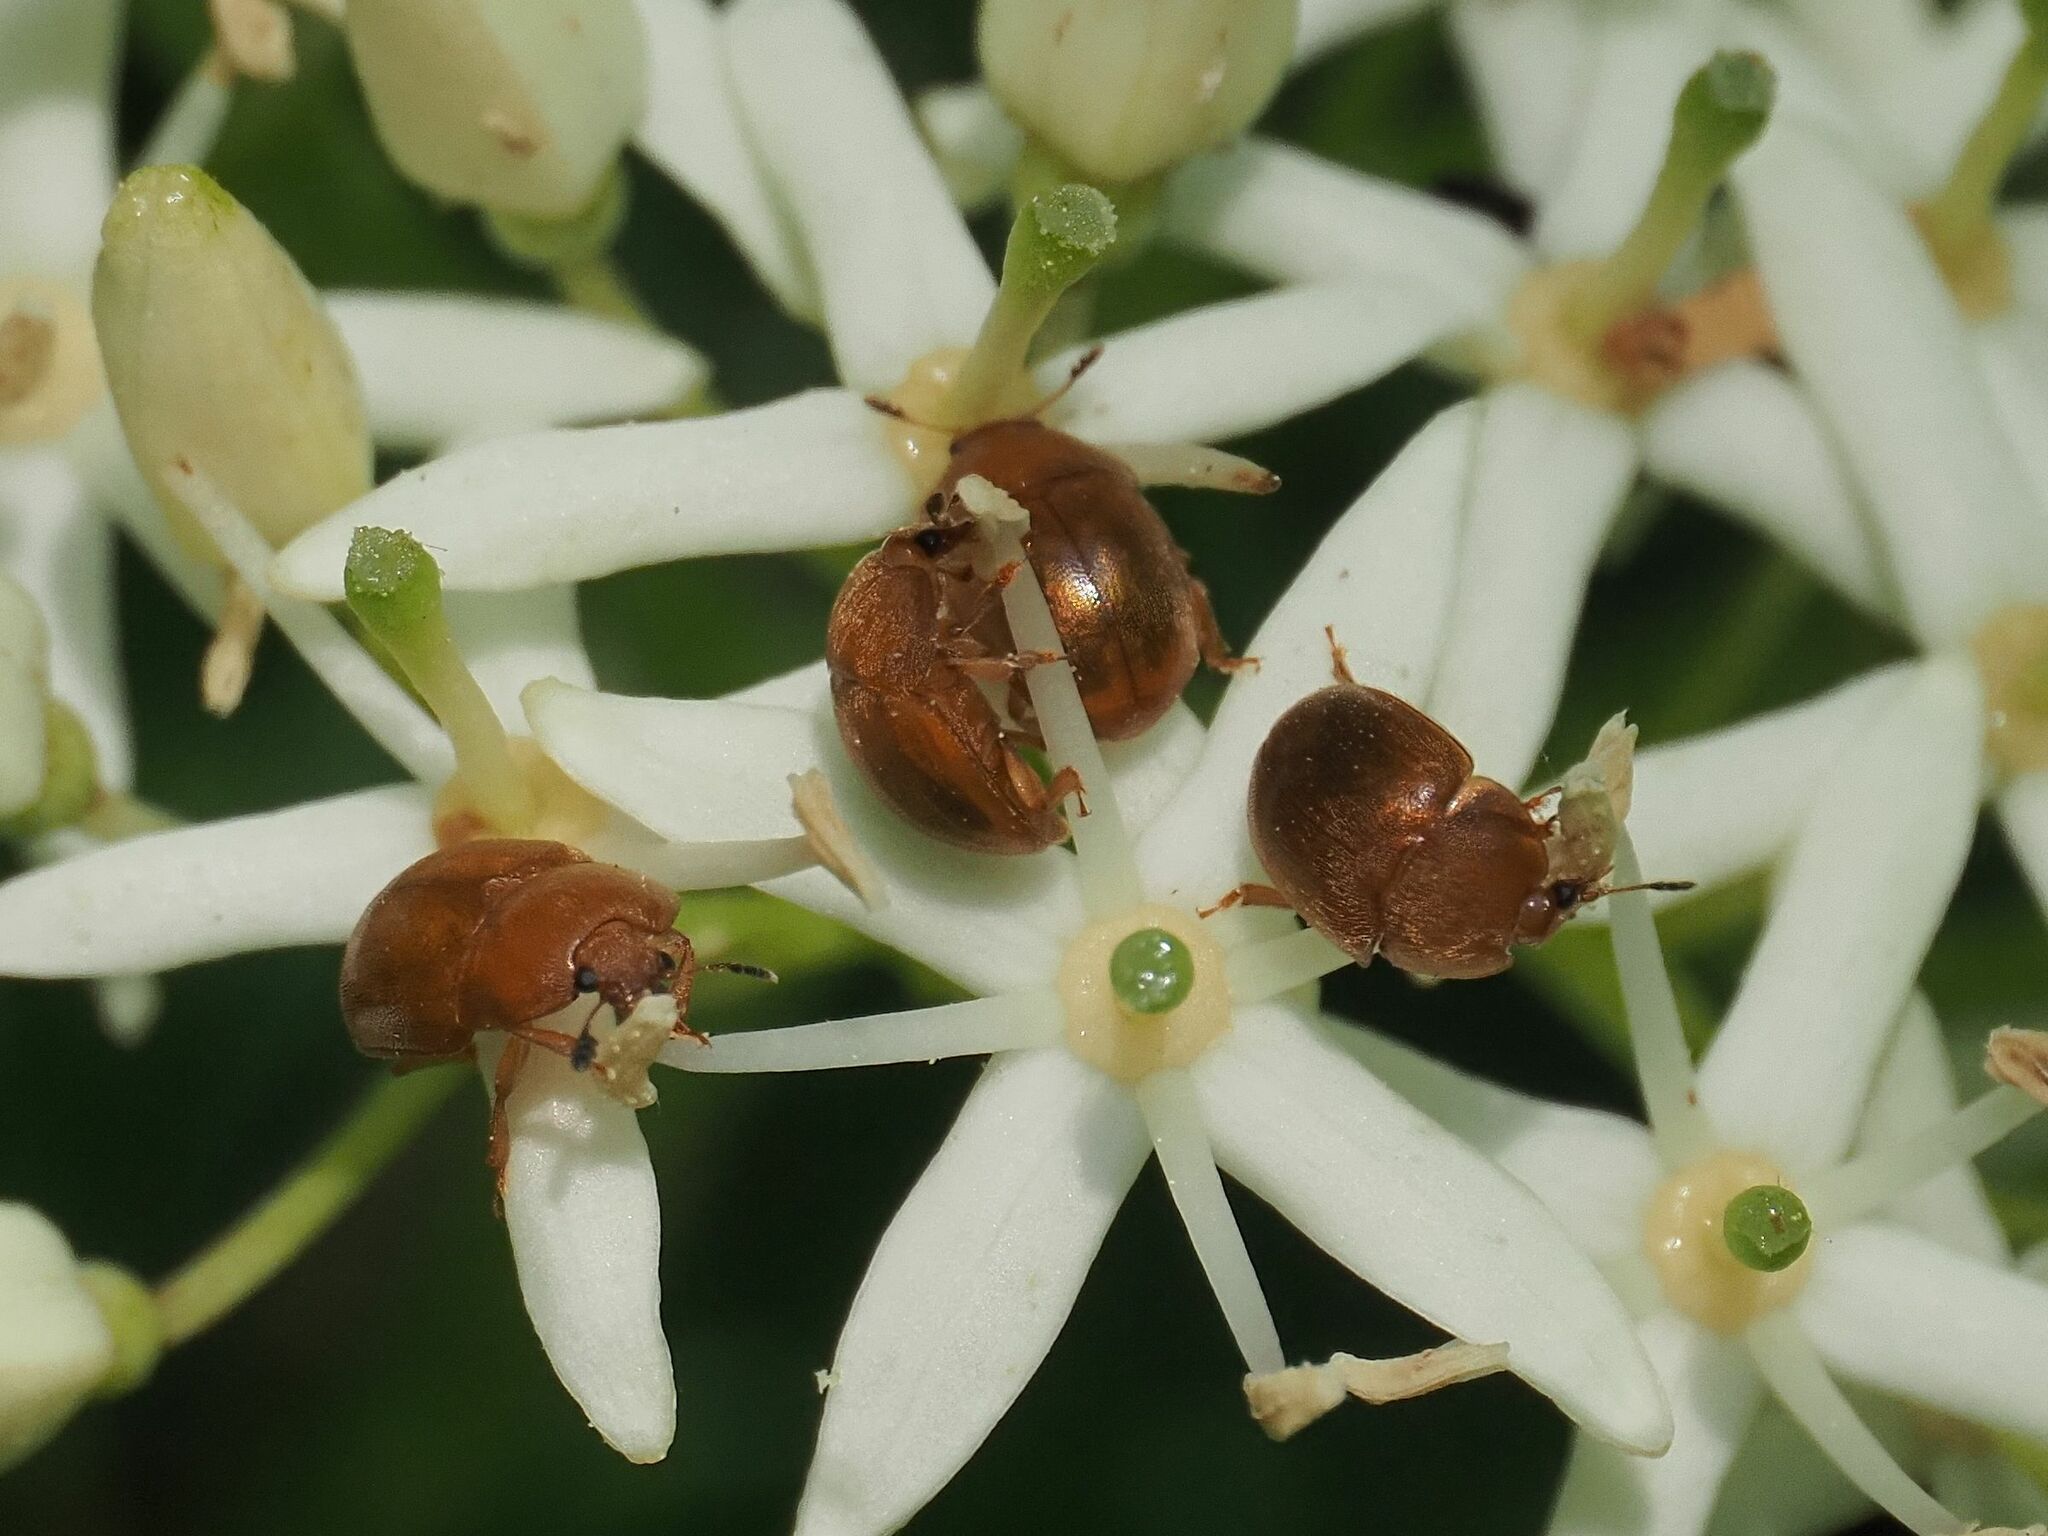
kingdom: Animalia
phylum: Arthropoda
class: Insecta
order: Coleoptera
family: Nitidulidae
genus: Cychramus
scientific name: Cychramus luteus
